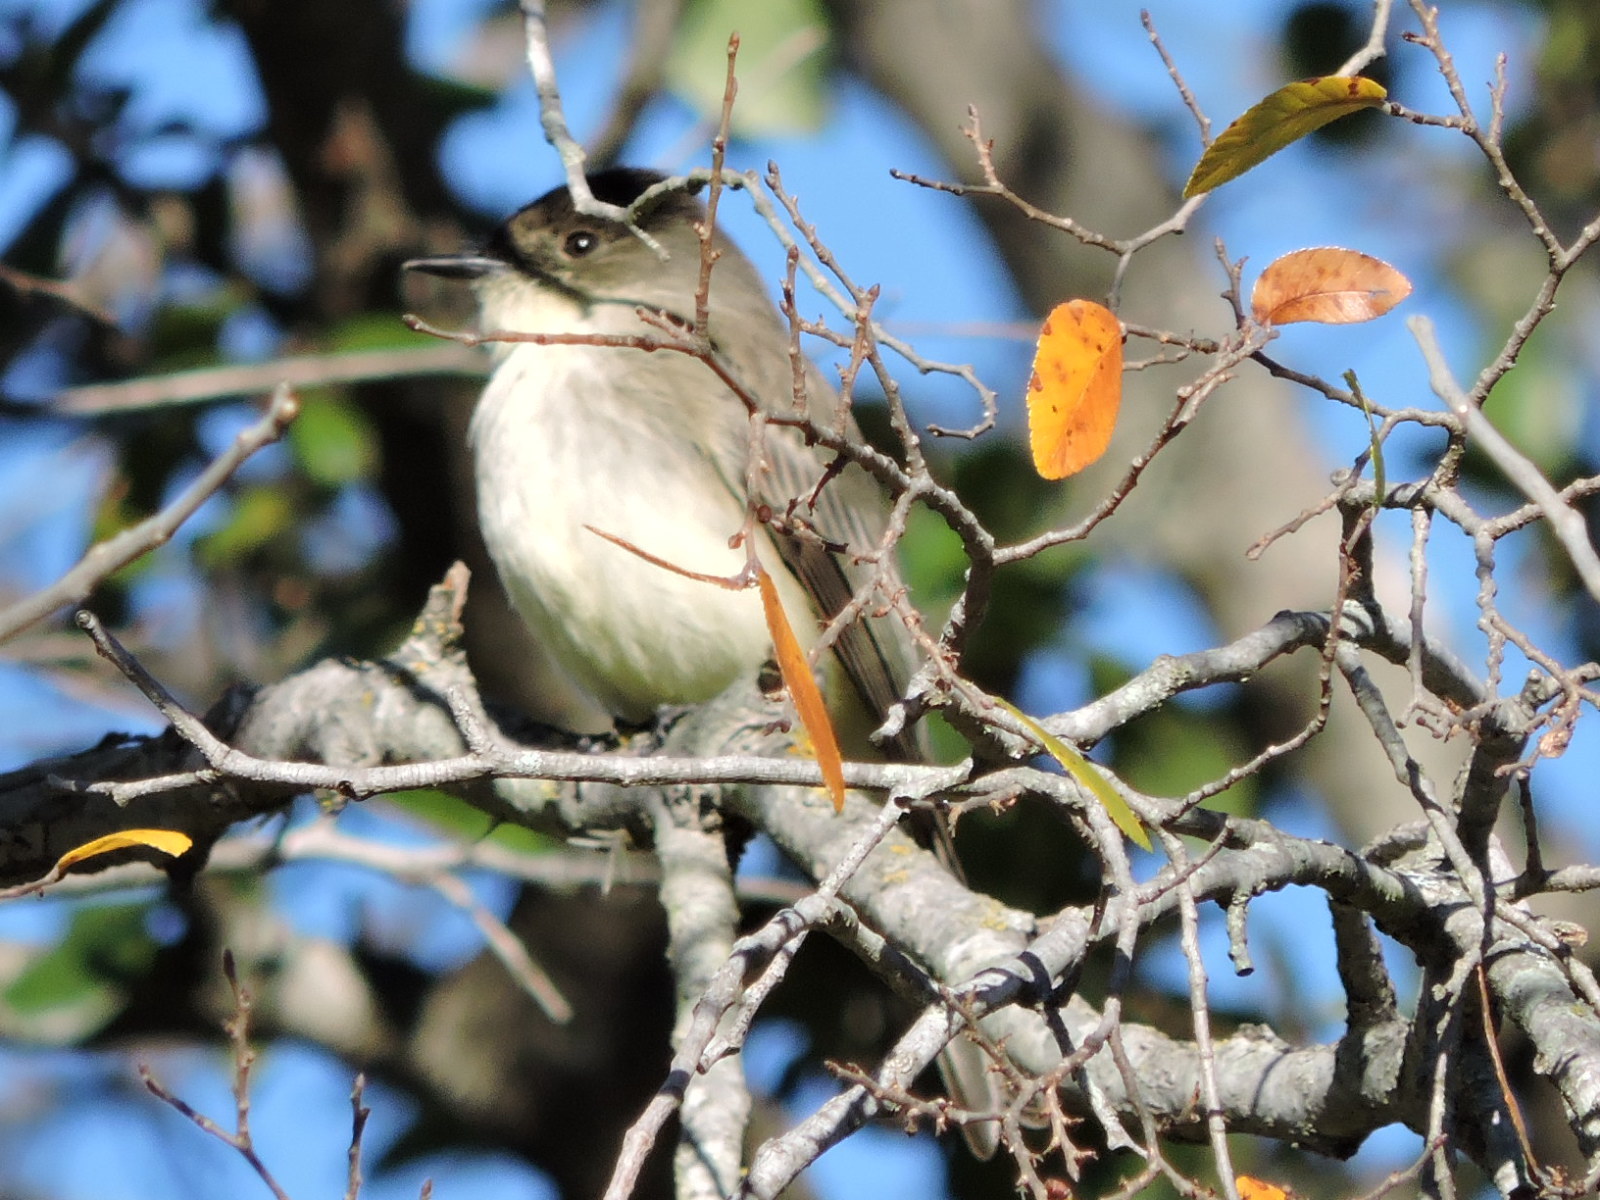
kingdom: Animalia
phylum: Chordata
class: Aves
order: Passeriformes
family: Tyrannidae
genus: Sayornis
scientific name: Sayornis phoebe
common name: Eastern phoebe
